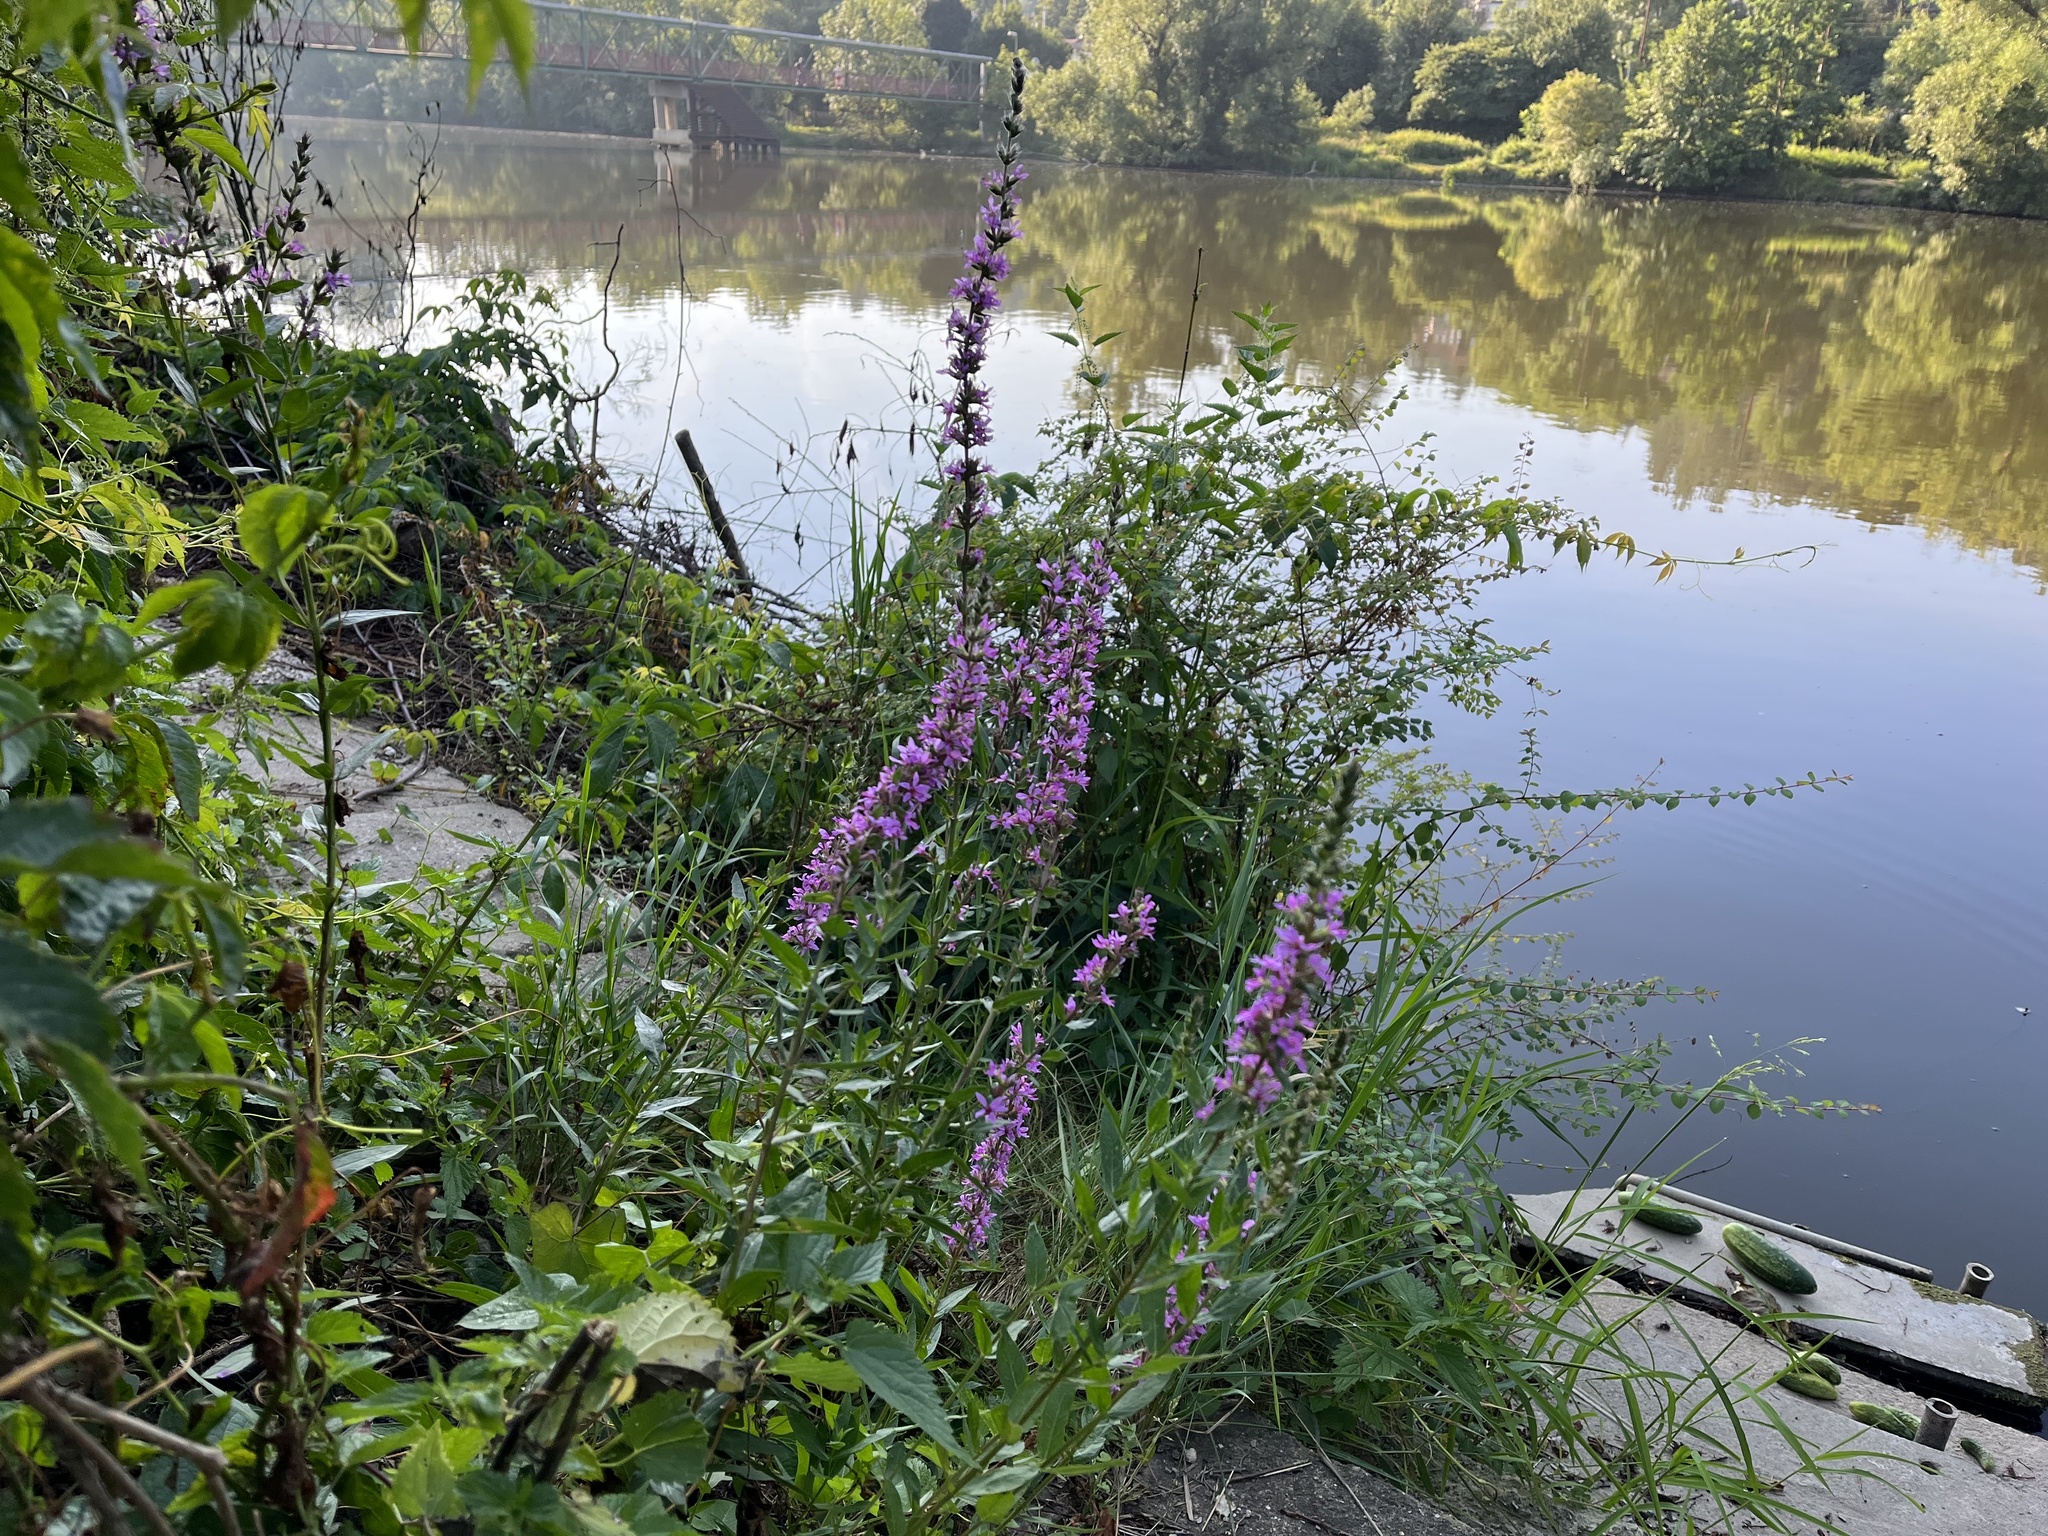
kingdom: Plantae
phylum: Tracheophyta
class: Magnoliopsida
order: Myrtales
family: Lythraceae
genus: Lythrum
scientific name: Lythrum salicaria
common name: Purple loosestrife
